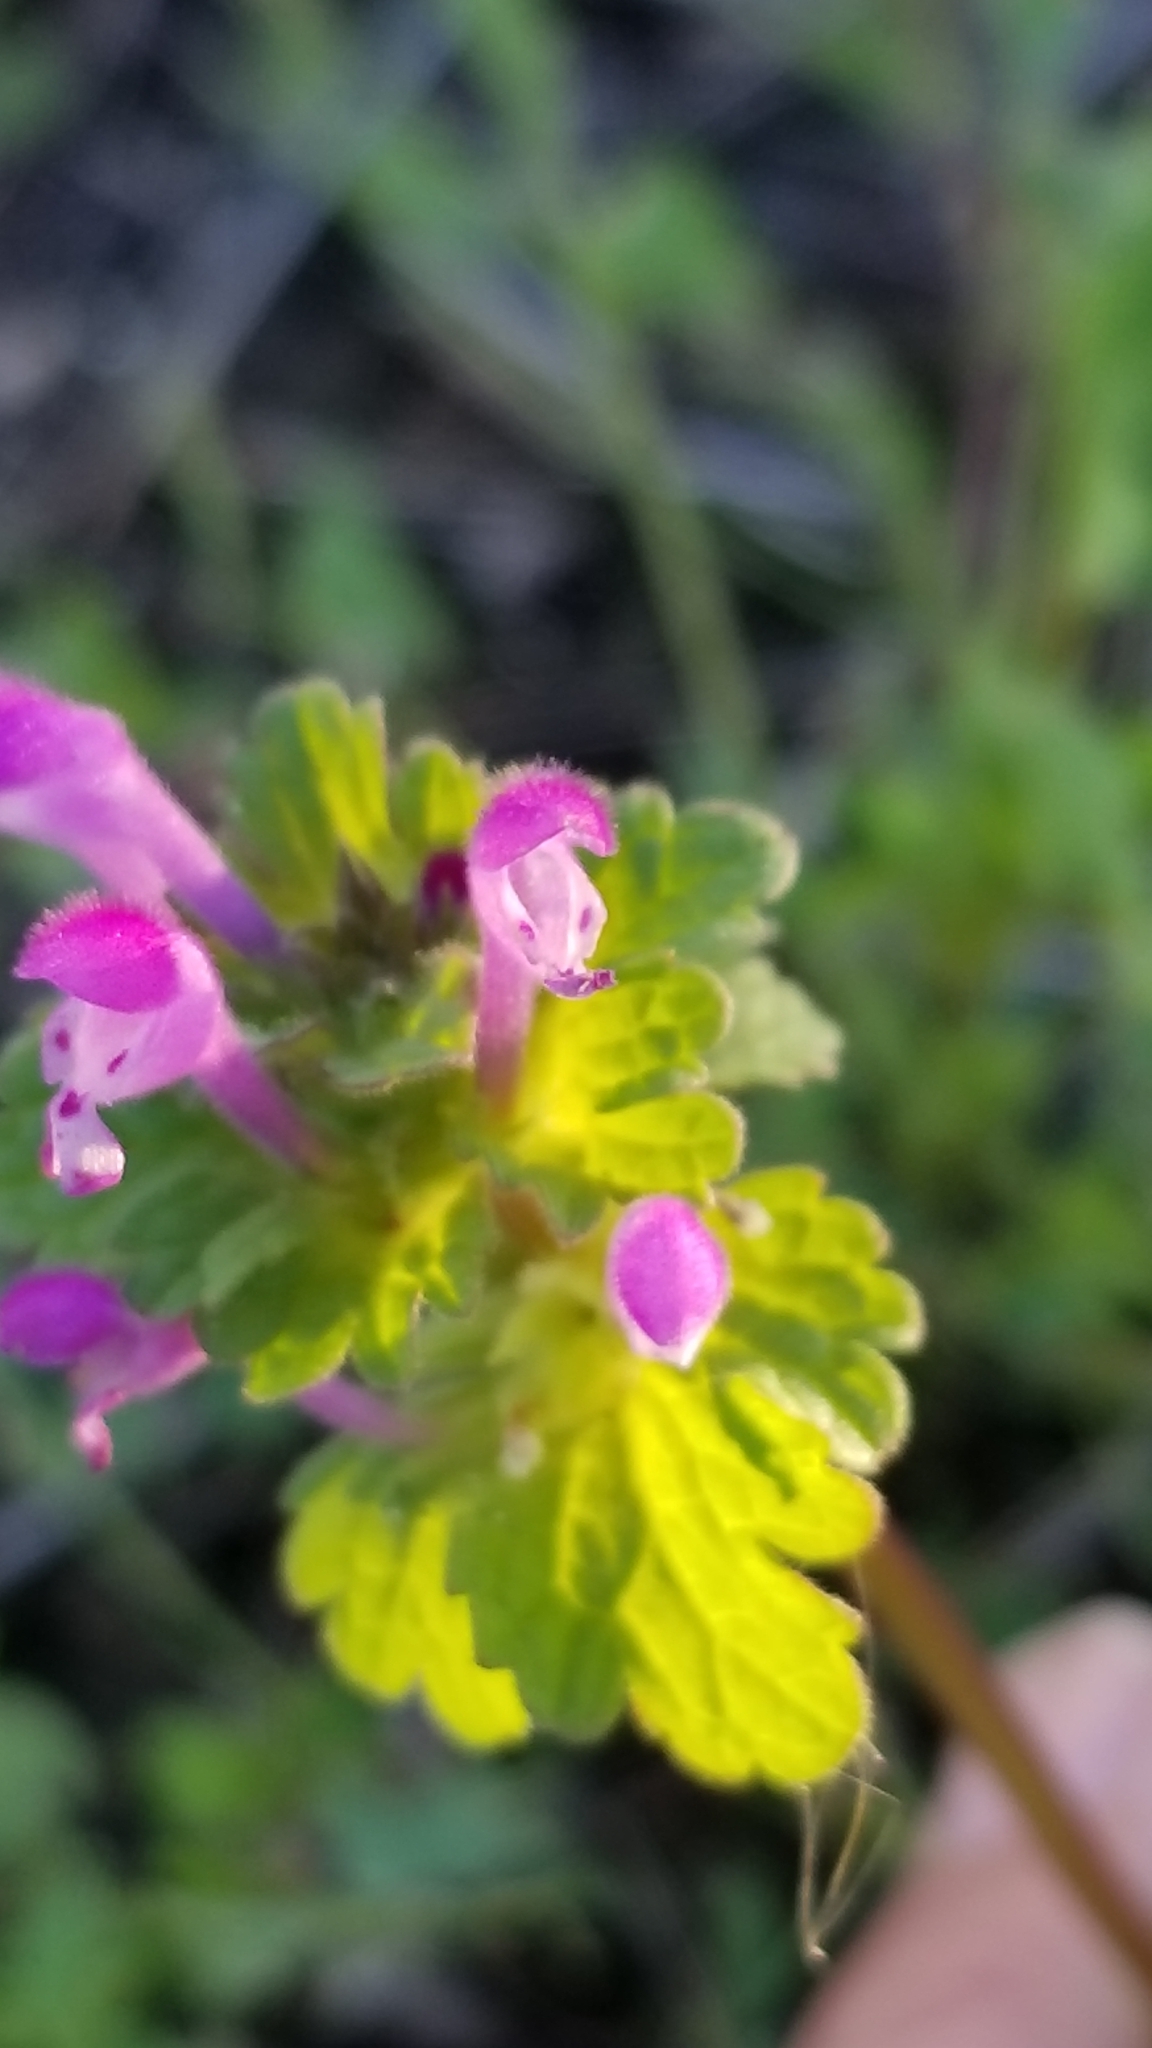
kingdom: Plantae
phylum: Tracheophyta
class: Magnoliopsida
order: Lamiales
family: Lamiaceae
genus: Lamium
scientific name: Lamium amplexicaule
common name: Henbit dead-nettle
